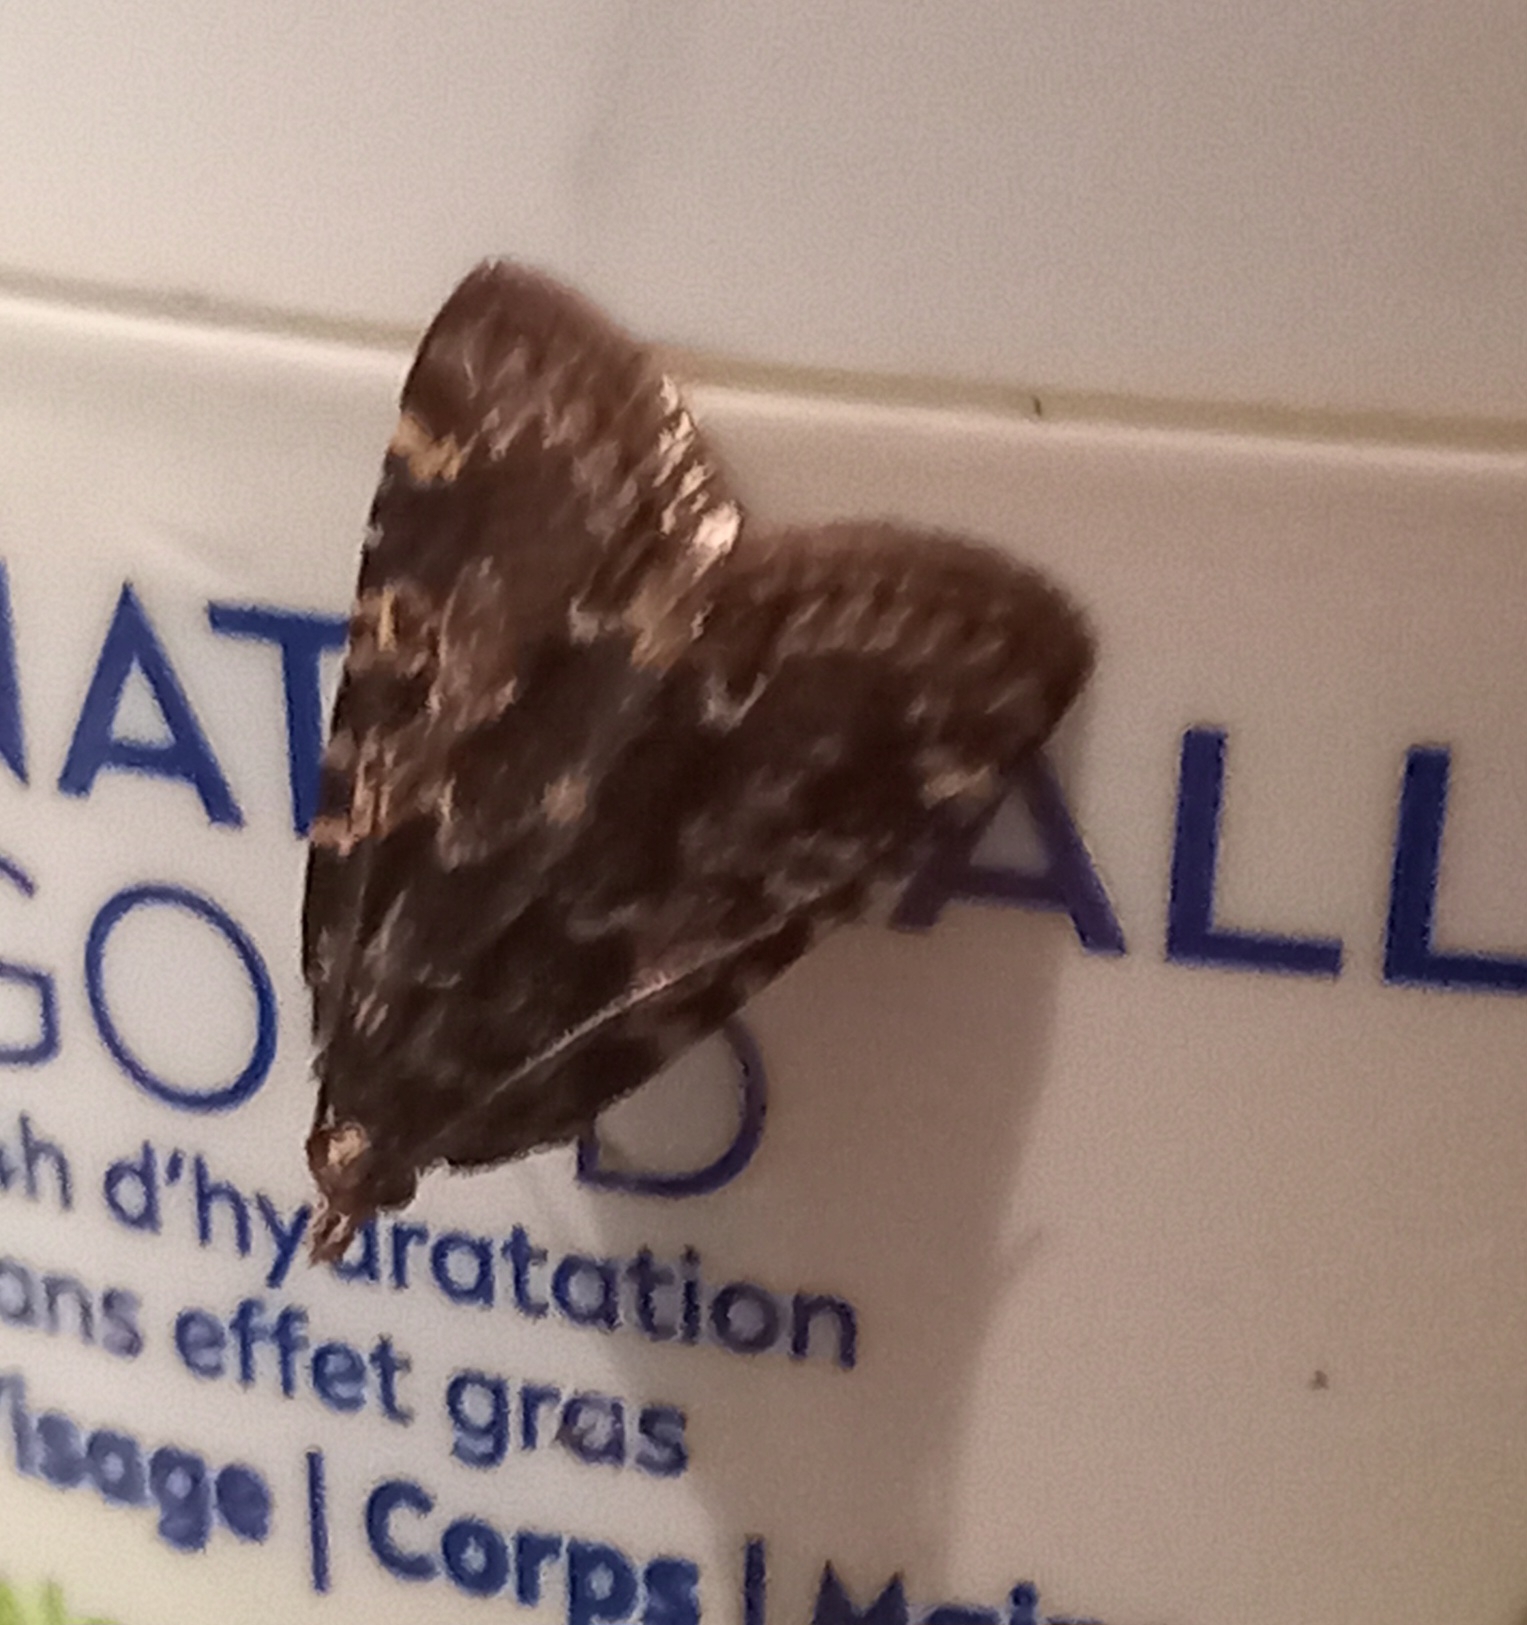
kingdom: Animalia
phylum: Arthropoda
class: Insecta
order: Lepidoptera
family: Pyralidae
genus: Aglossa
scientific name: Aglossa caprealis
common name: Small tabby
